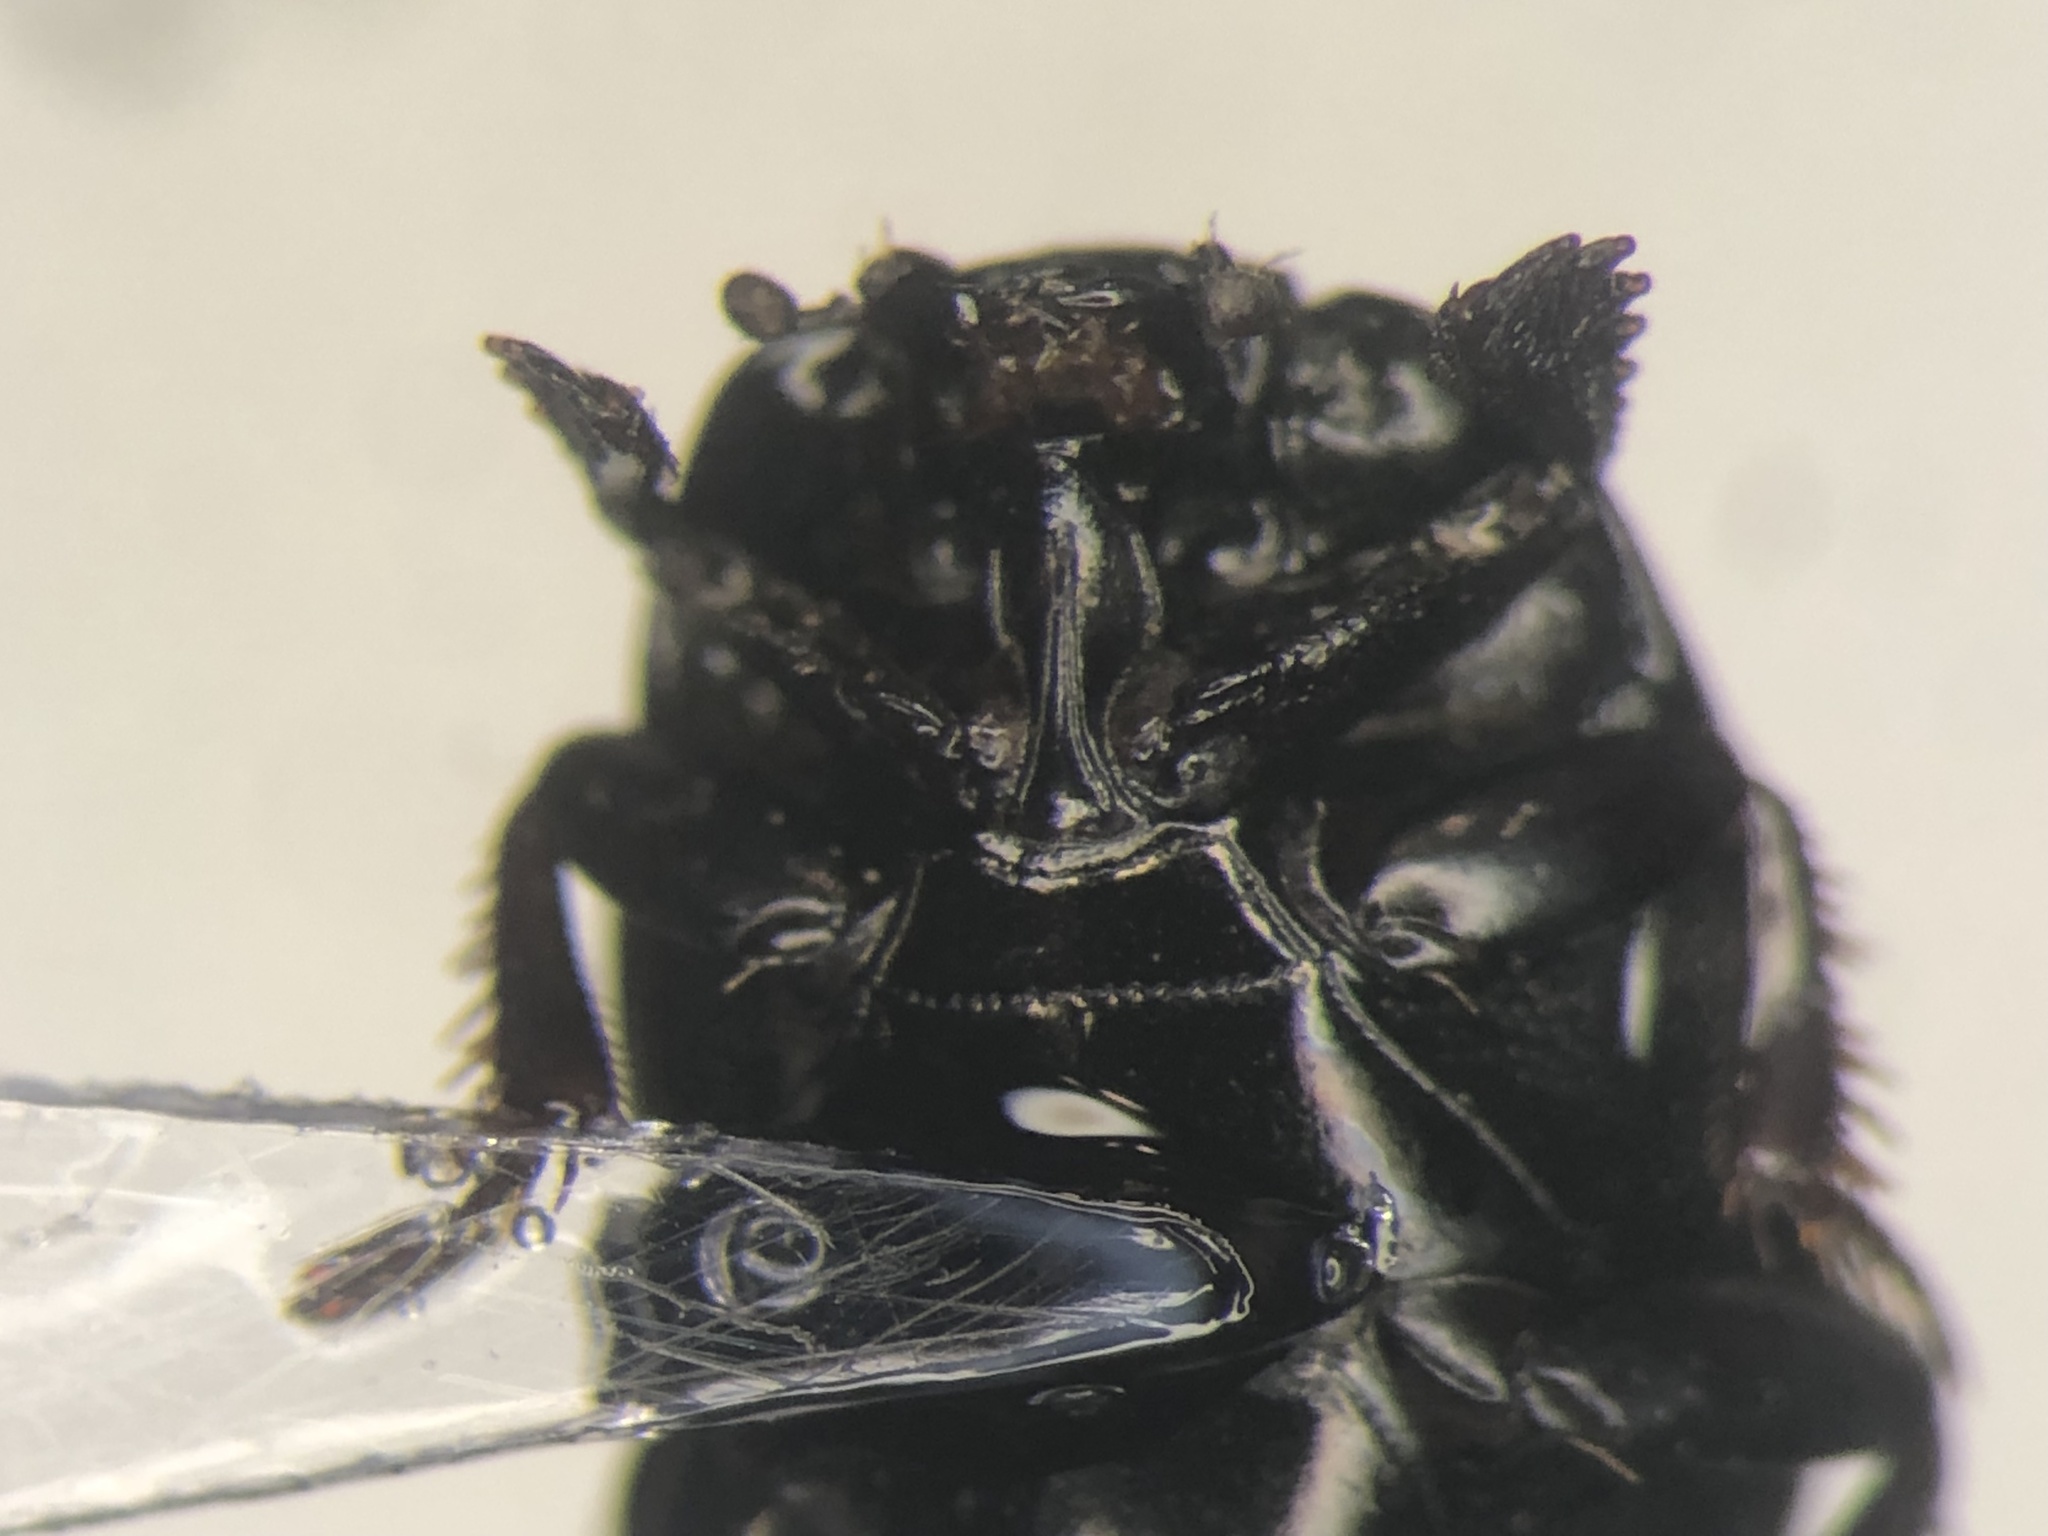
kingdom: Animalia
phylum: Arthropoda
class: Insecta
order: Coleoptera
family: Histeridae
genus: Hypocaccus
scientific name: Hypocaccus fraternus
